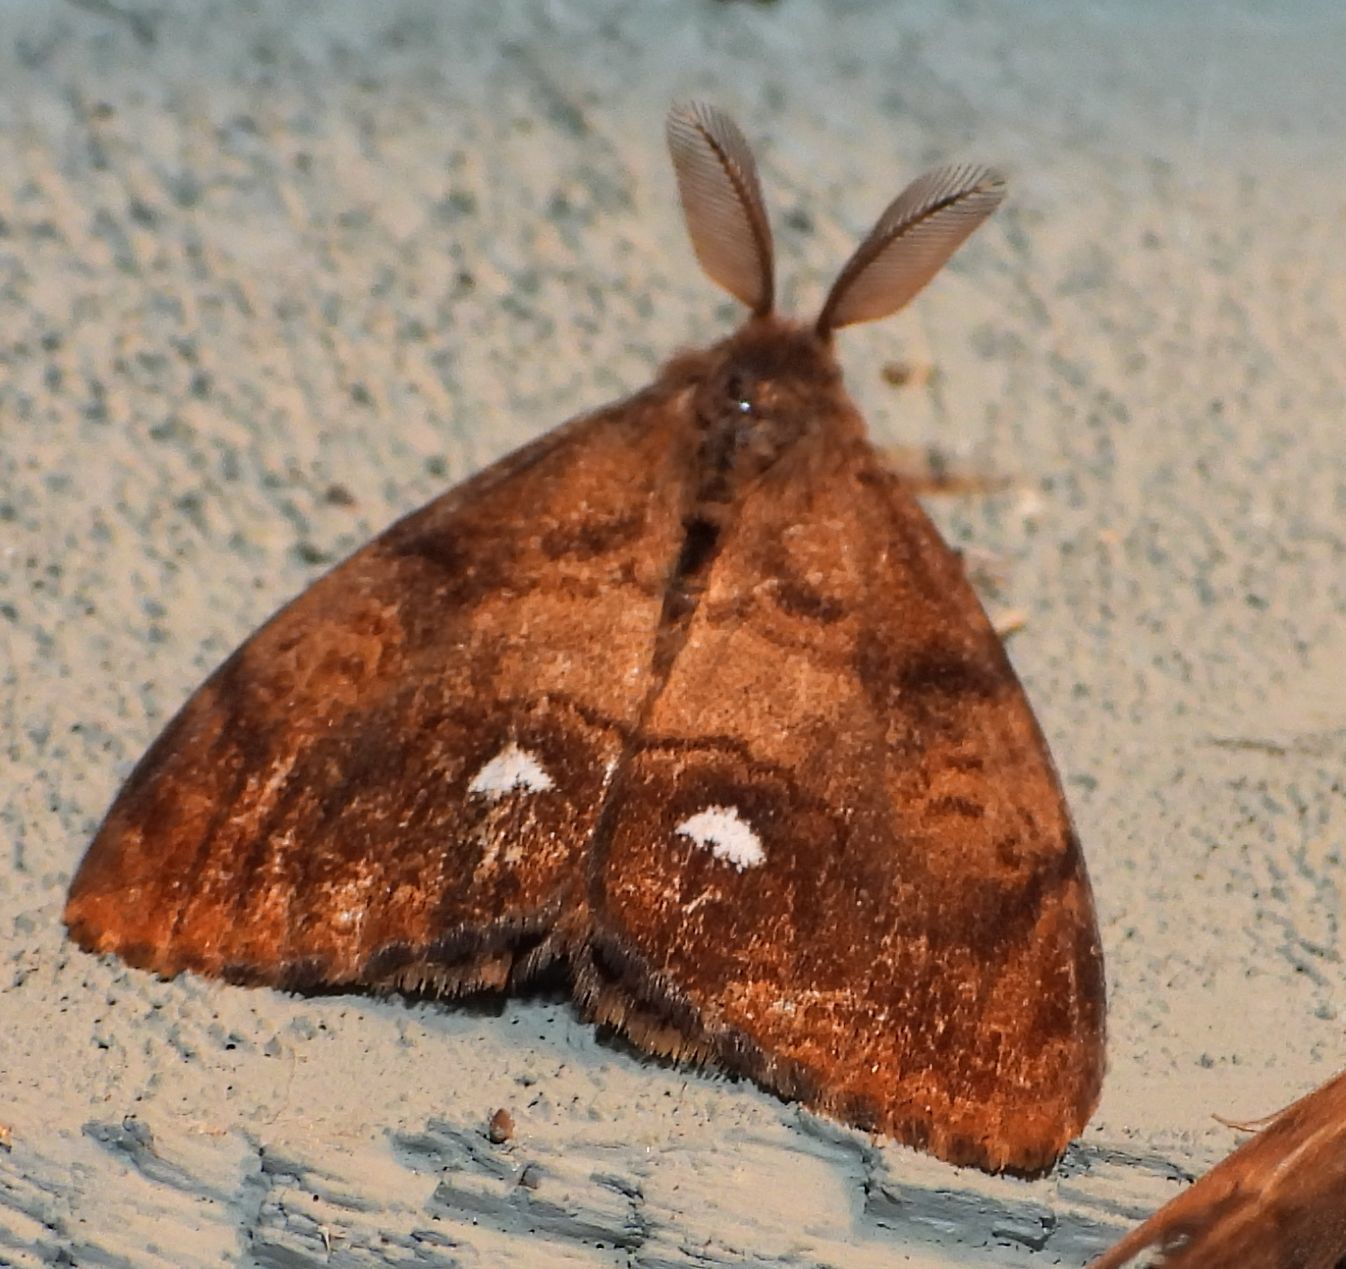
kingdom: Animalia
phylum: Arthropoda
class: Insecta
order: Lepidoptera
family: Erebidae
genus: Orgyia
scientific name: Orgyia antiqua
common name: Vapourer
